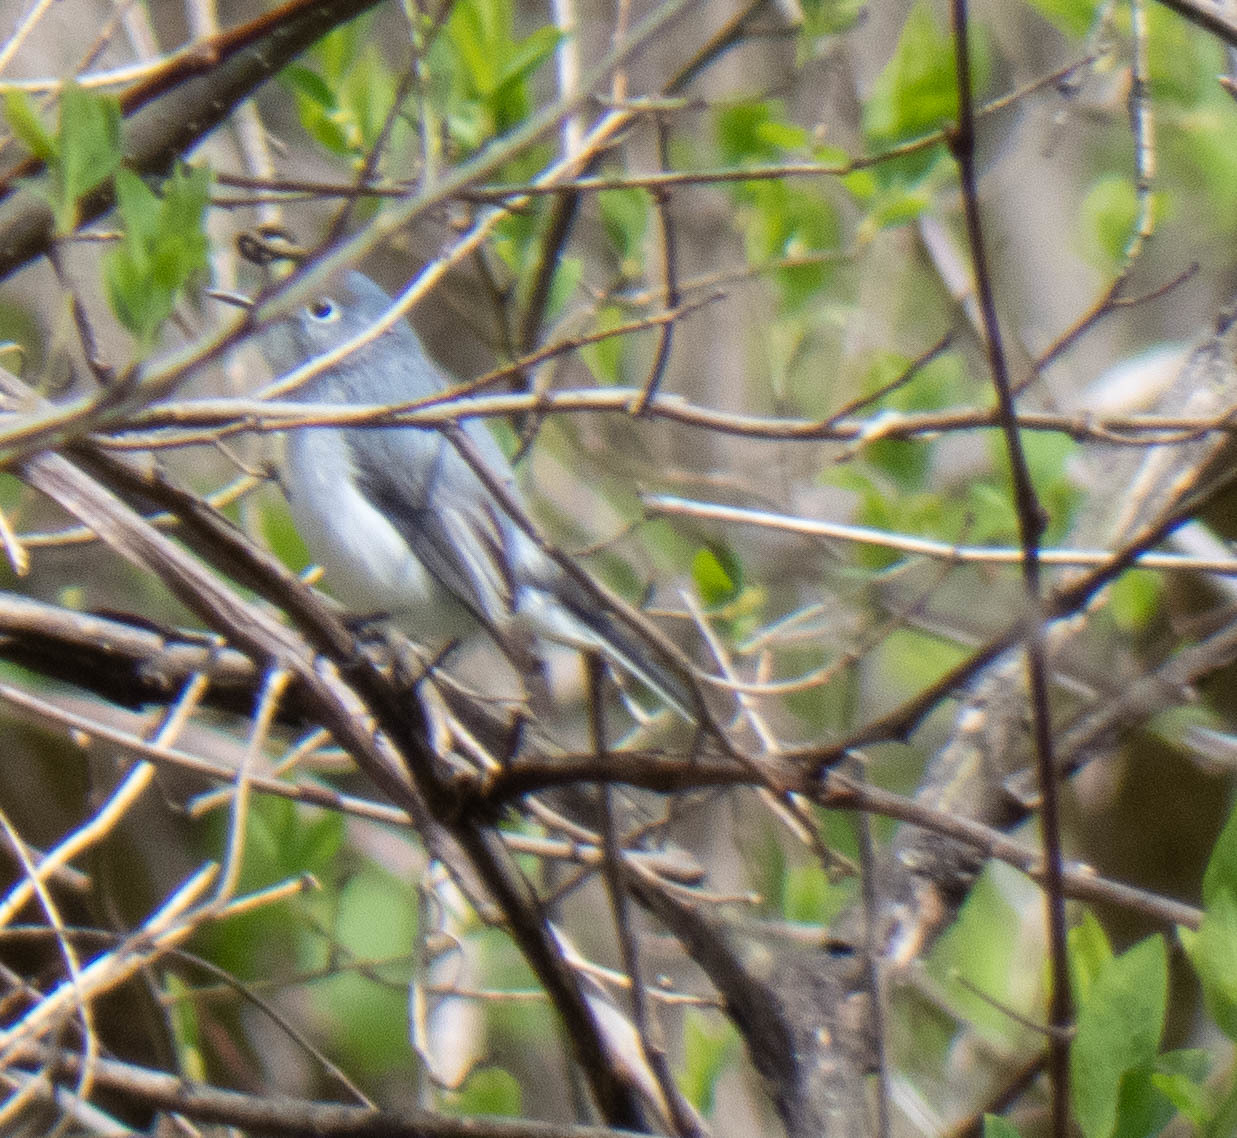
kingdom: Animalia
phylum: Chordata
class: Aves
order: Passeriformes
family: Polioptilidae
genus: Polioptila
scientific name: Polioptila caerulea
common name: Blue-gray gnatcatcher
